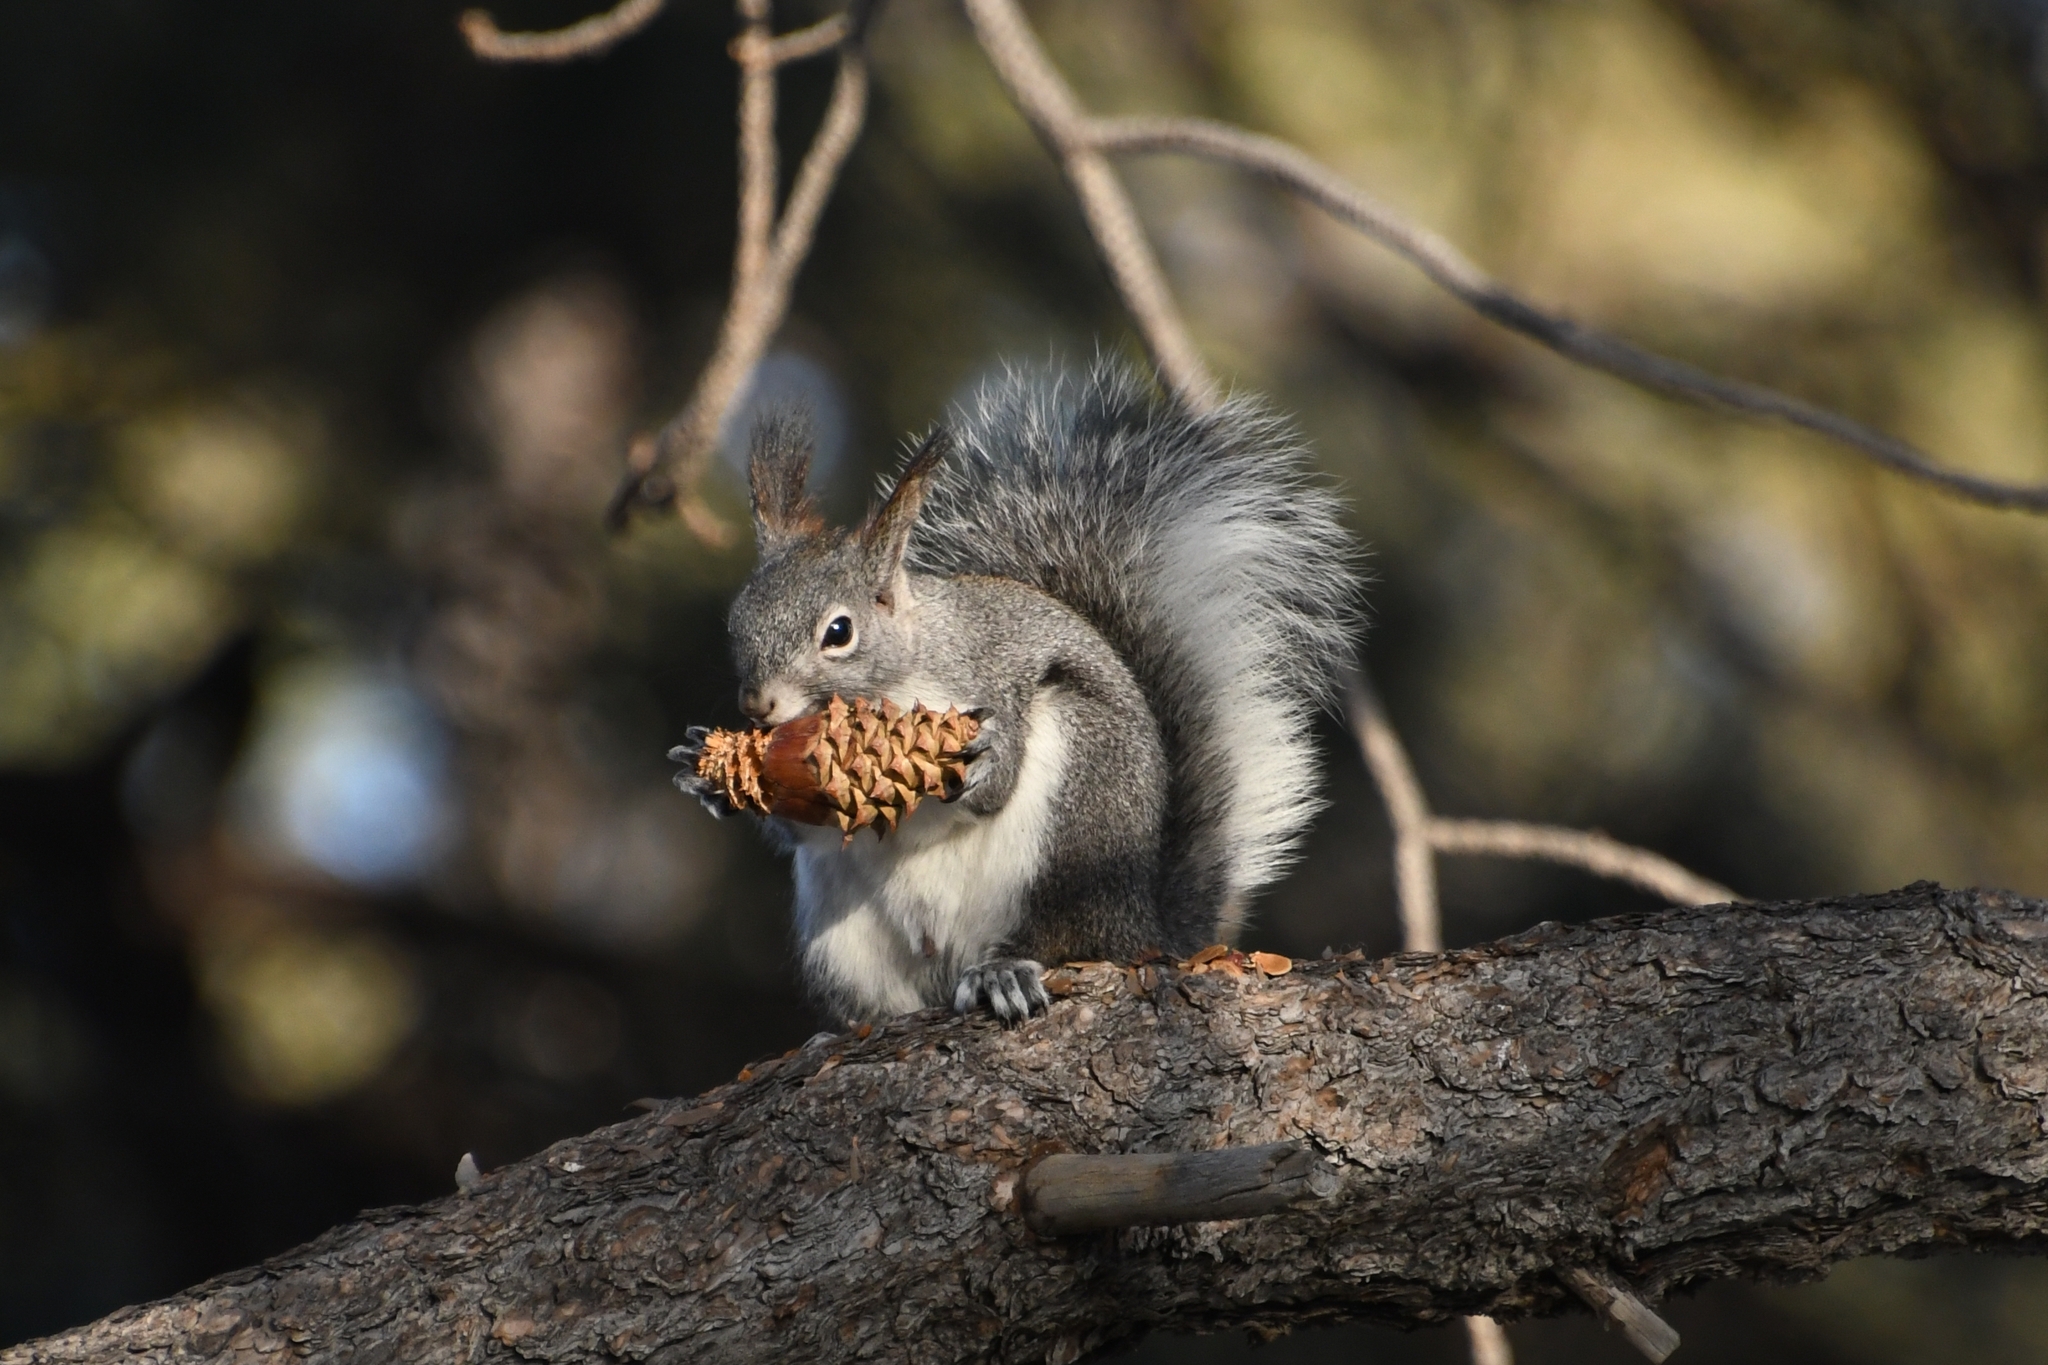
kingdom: Animalia
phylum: Chordata
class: Mammalia
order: Rodentia
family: Sciuridae
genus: Sciurus
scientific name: Sciurus aberti
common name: Abert's squirrel
